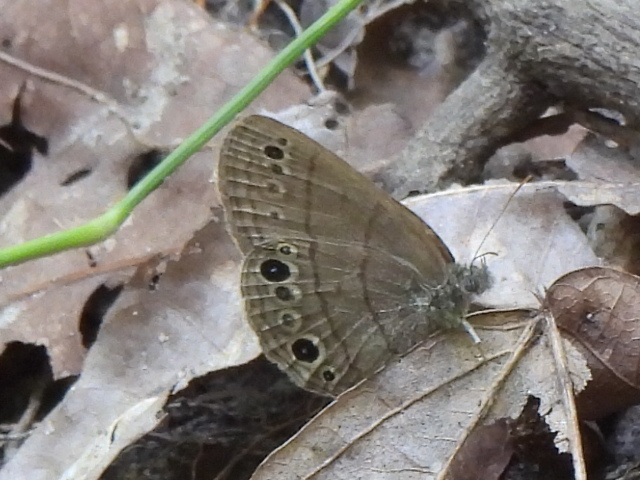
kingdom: Animalia
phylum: Arthropoda
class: Insecta
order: Lepidoptera
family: Nymphalidae
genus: Hermeuptychia
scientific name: Hermeuptychia hermes
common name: Hermes satyr
